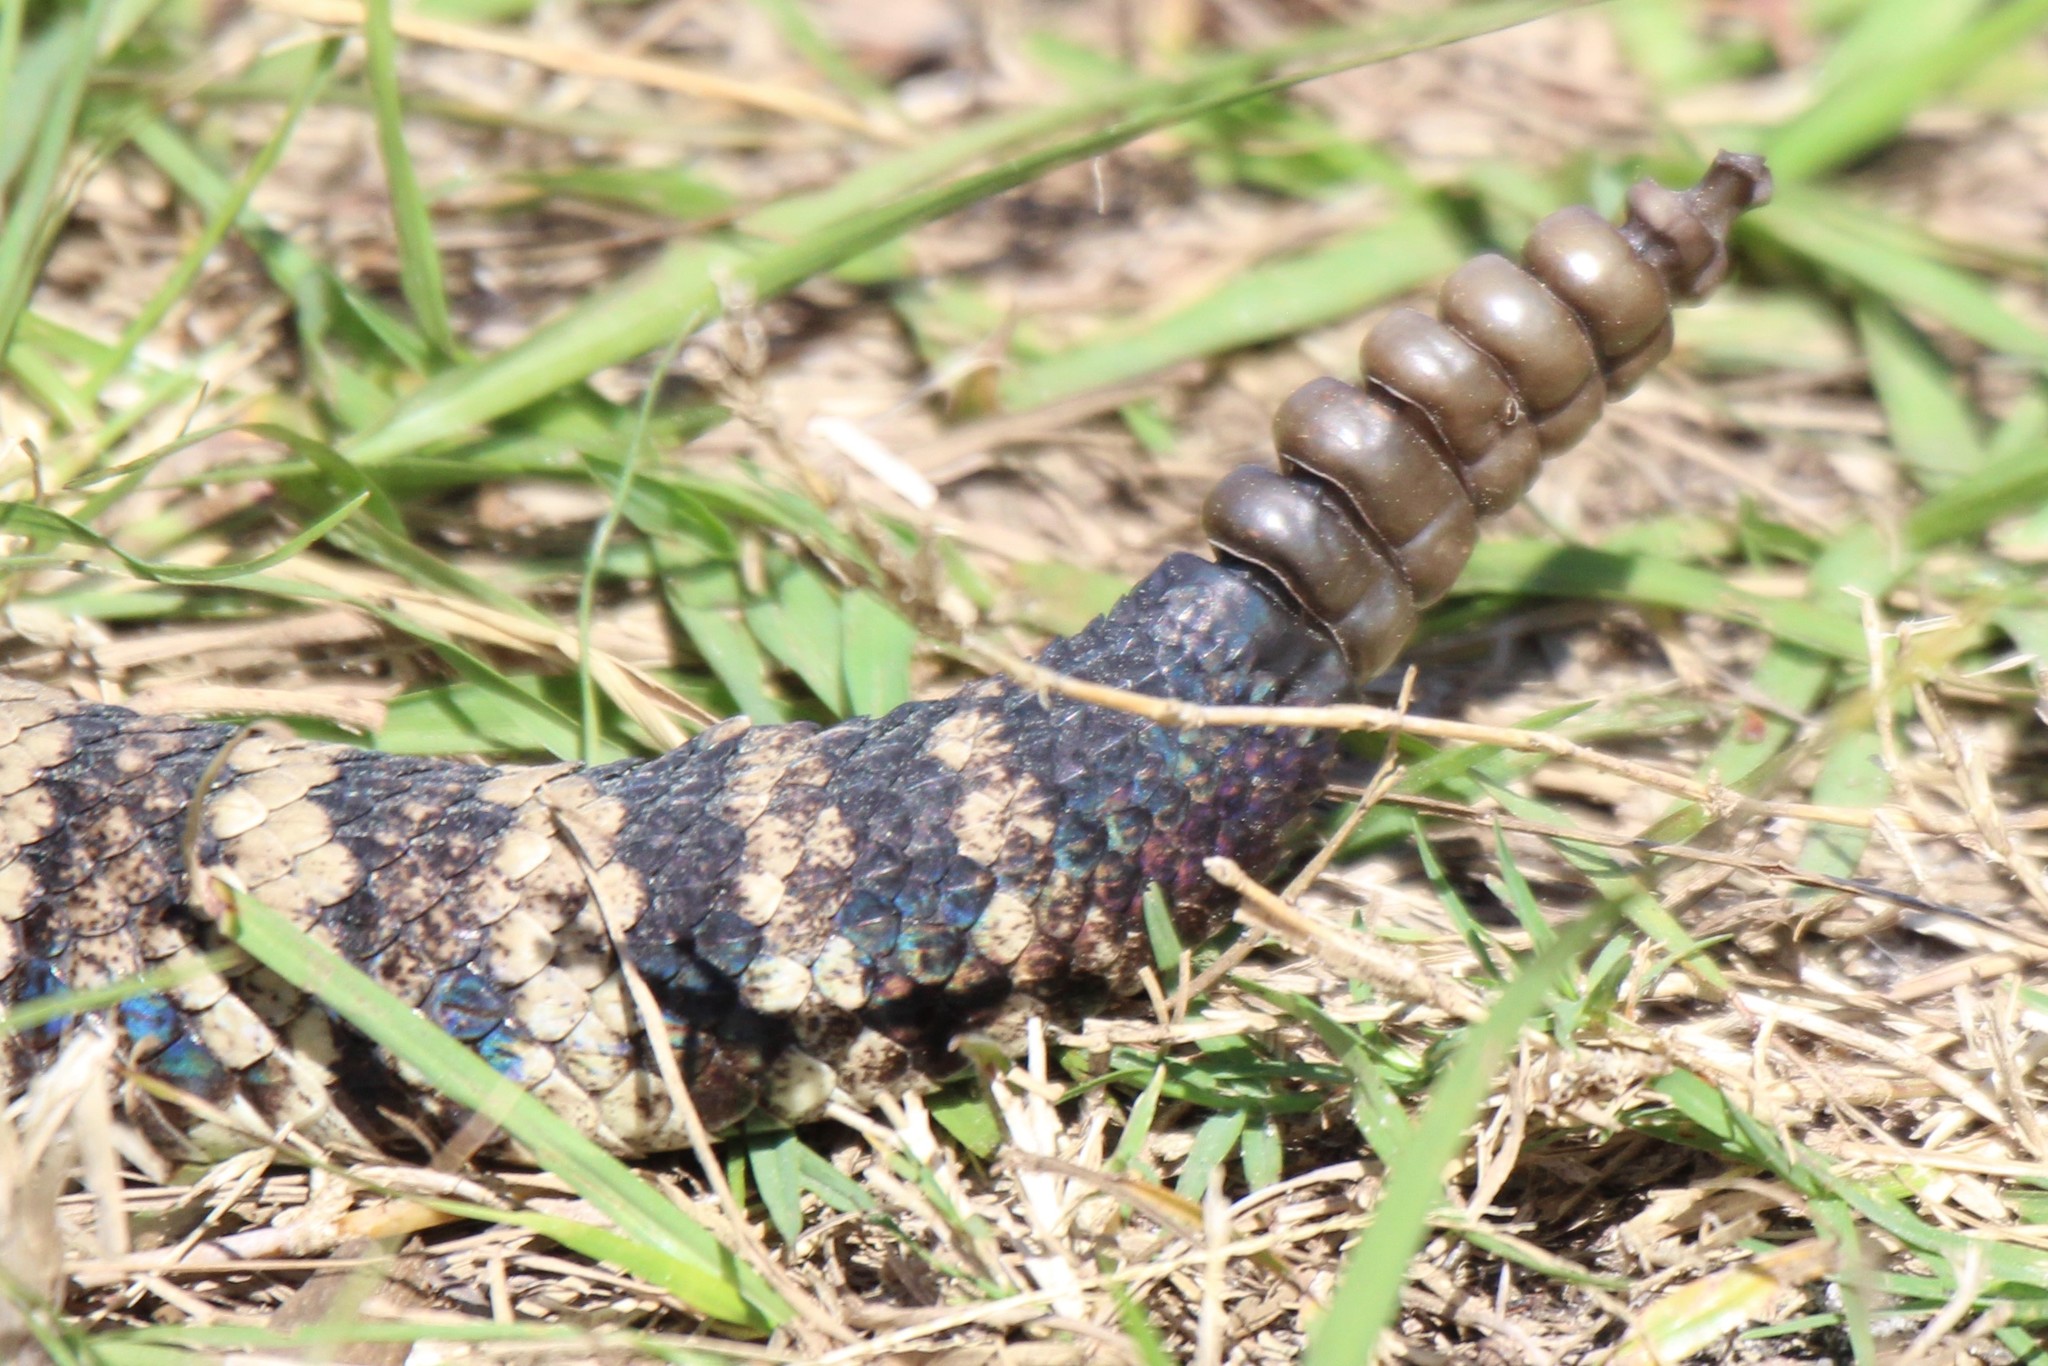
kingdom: Animalia
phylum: Chordata
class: Squamata
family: Viperidae
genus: Crotalus
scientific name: Crotalus adamanteus
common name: Eastern diamondback rattlesnake
